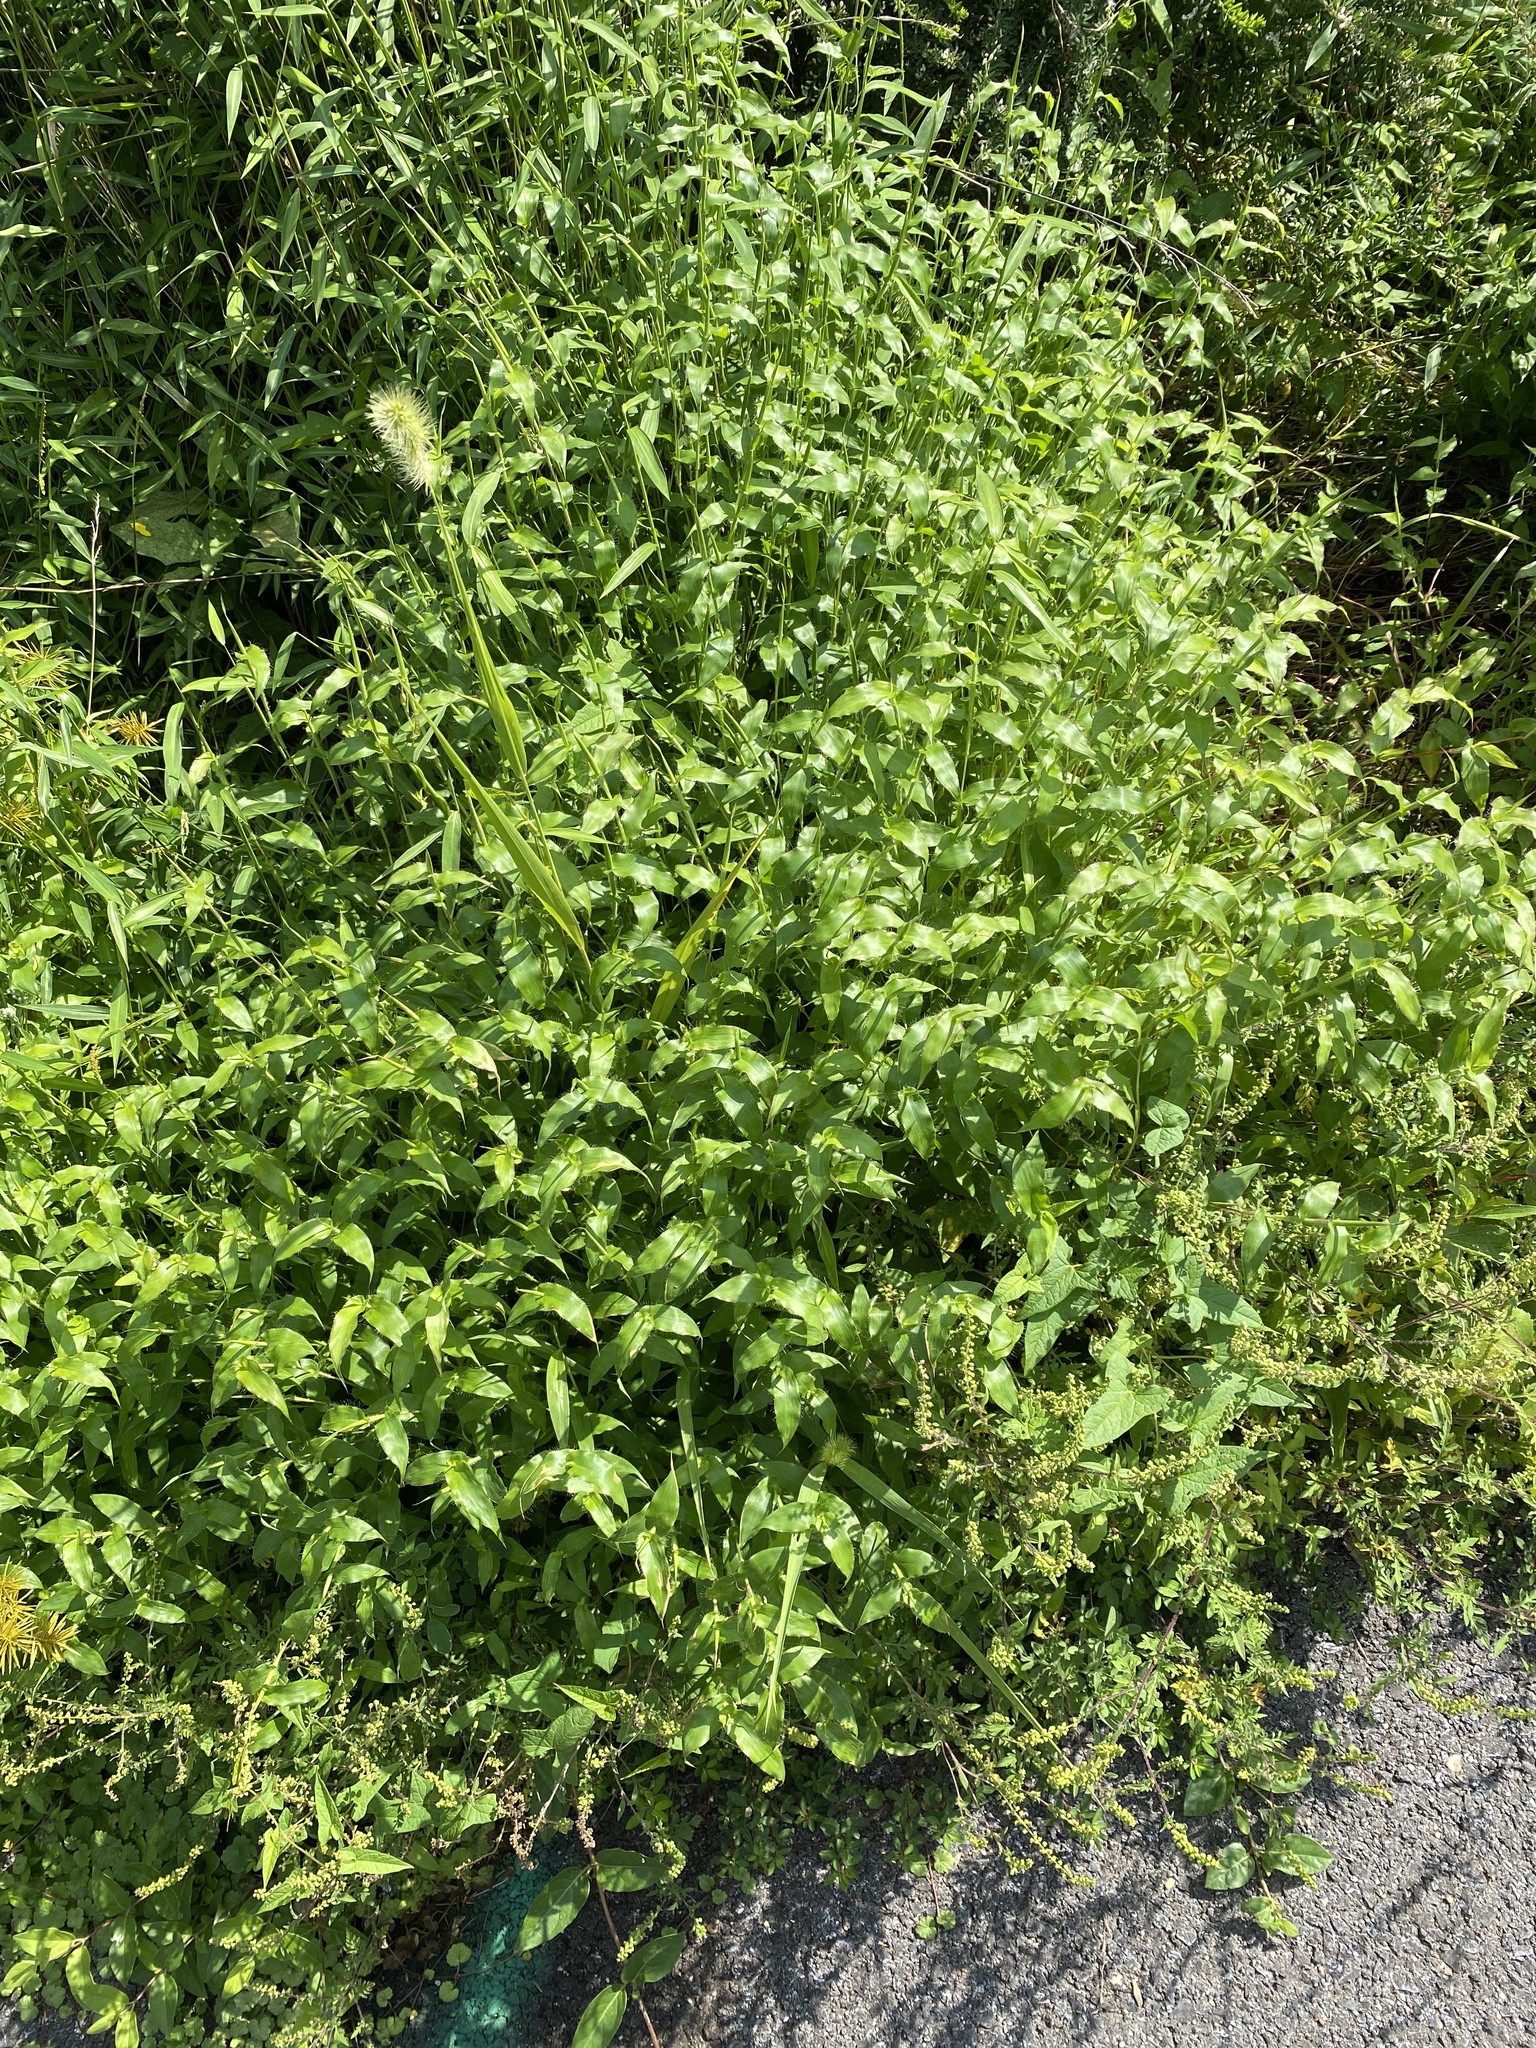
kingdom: Plantae
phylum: Tracheophyta
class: Liliopsida
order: Poales
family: Poaceae
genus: Arthraxon
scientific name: Arthraxon hispidus
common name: Small carpgrass
